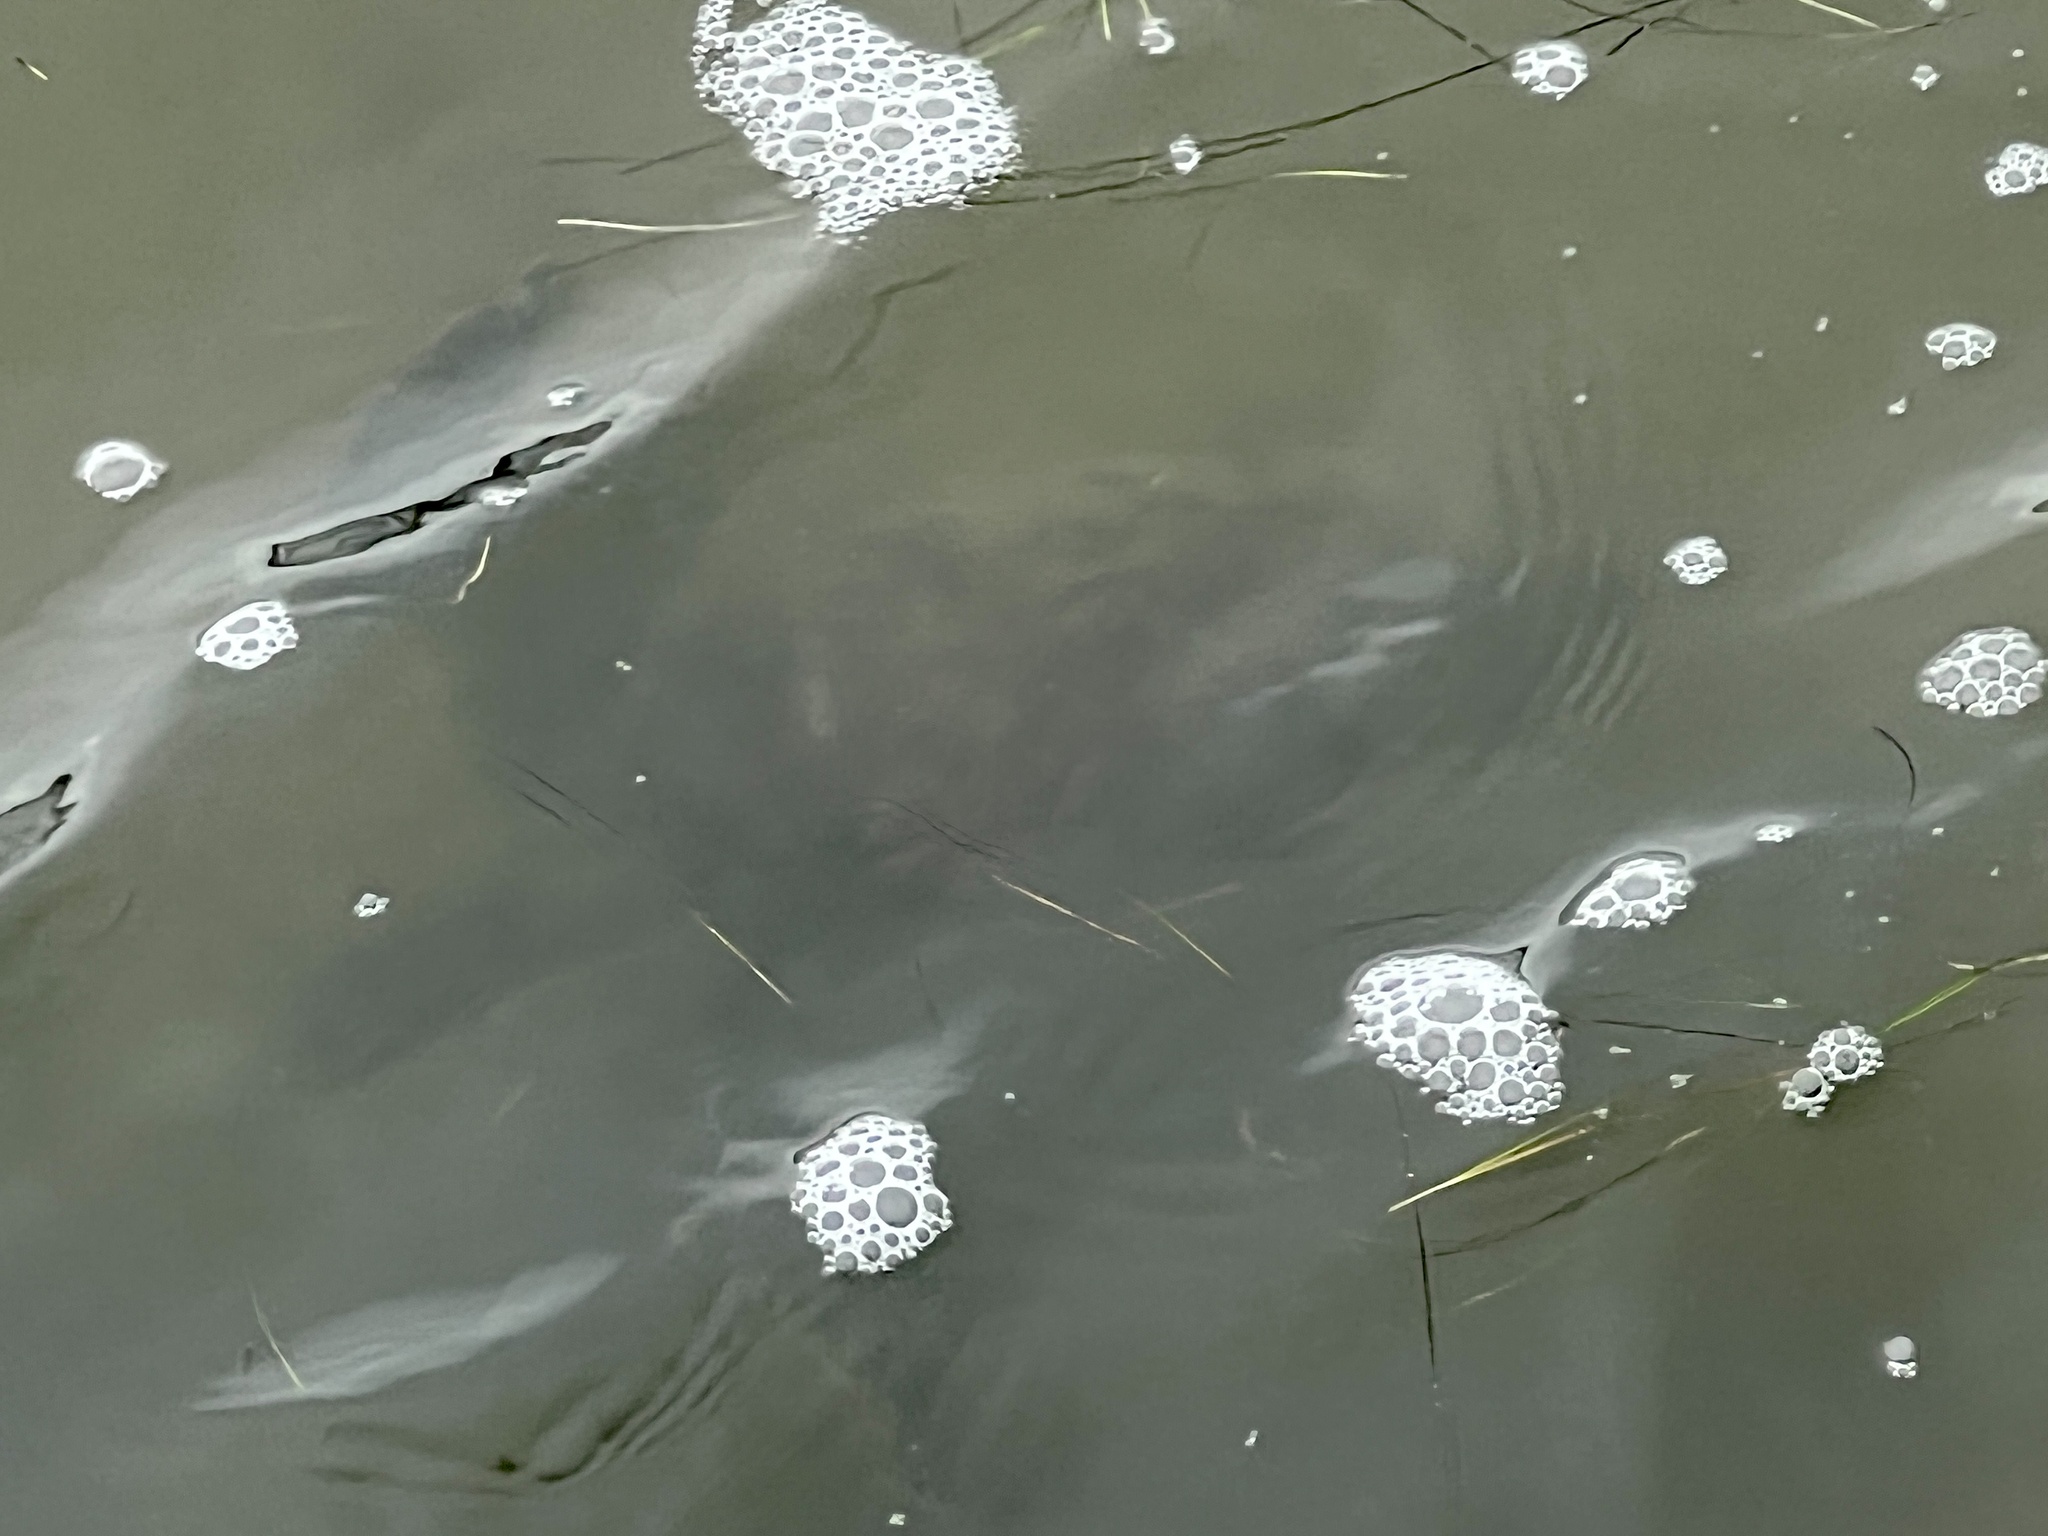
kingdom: Animalia
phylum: Chordata
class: Testudines
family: Cheloniidae
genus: Chelonia
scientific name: Chelonia mydas
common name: Green turtle
